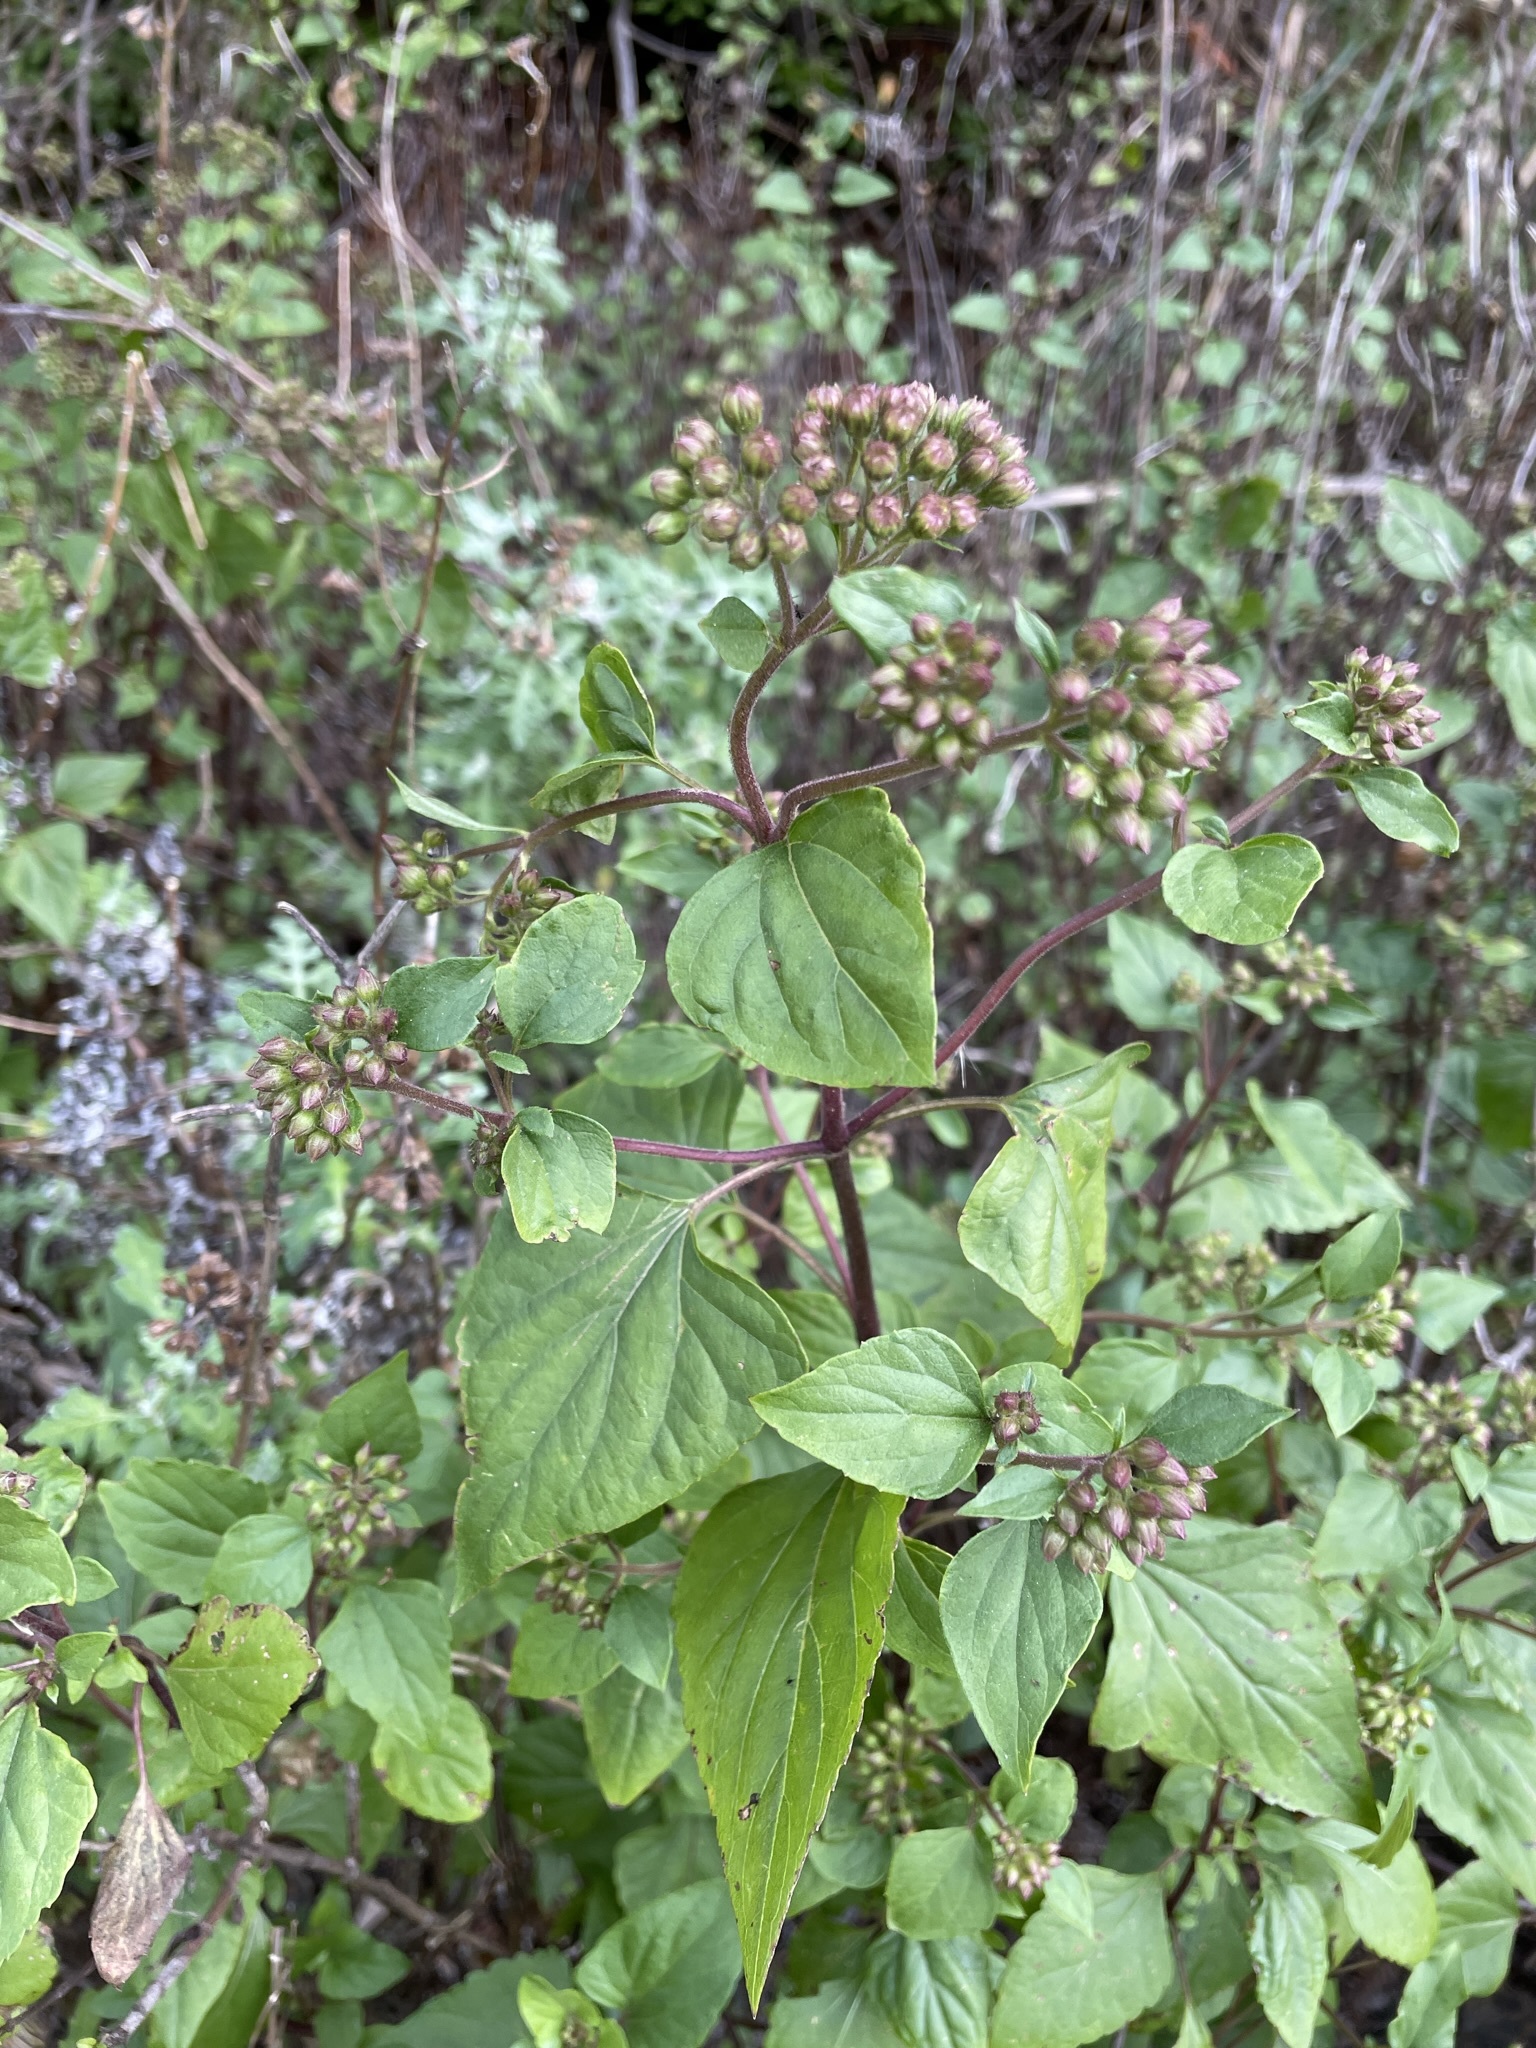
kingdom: Plantae
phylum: Tracheophyta
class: Magnoliopsida
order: Asterales
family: Asteraceae
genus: Ageratina
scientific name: Ageratina adenophora
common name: Sticky snakeroot
